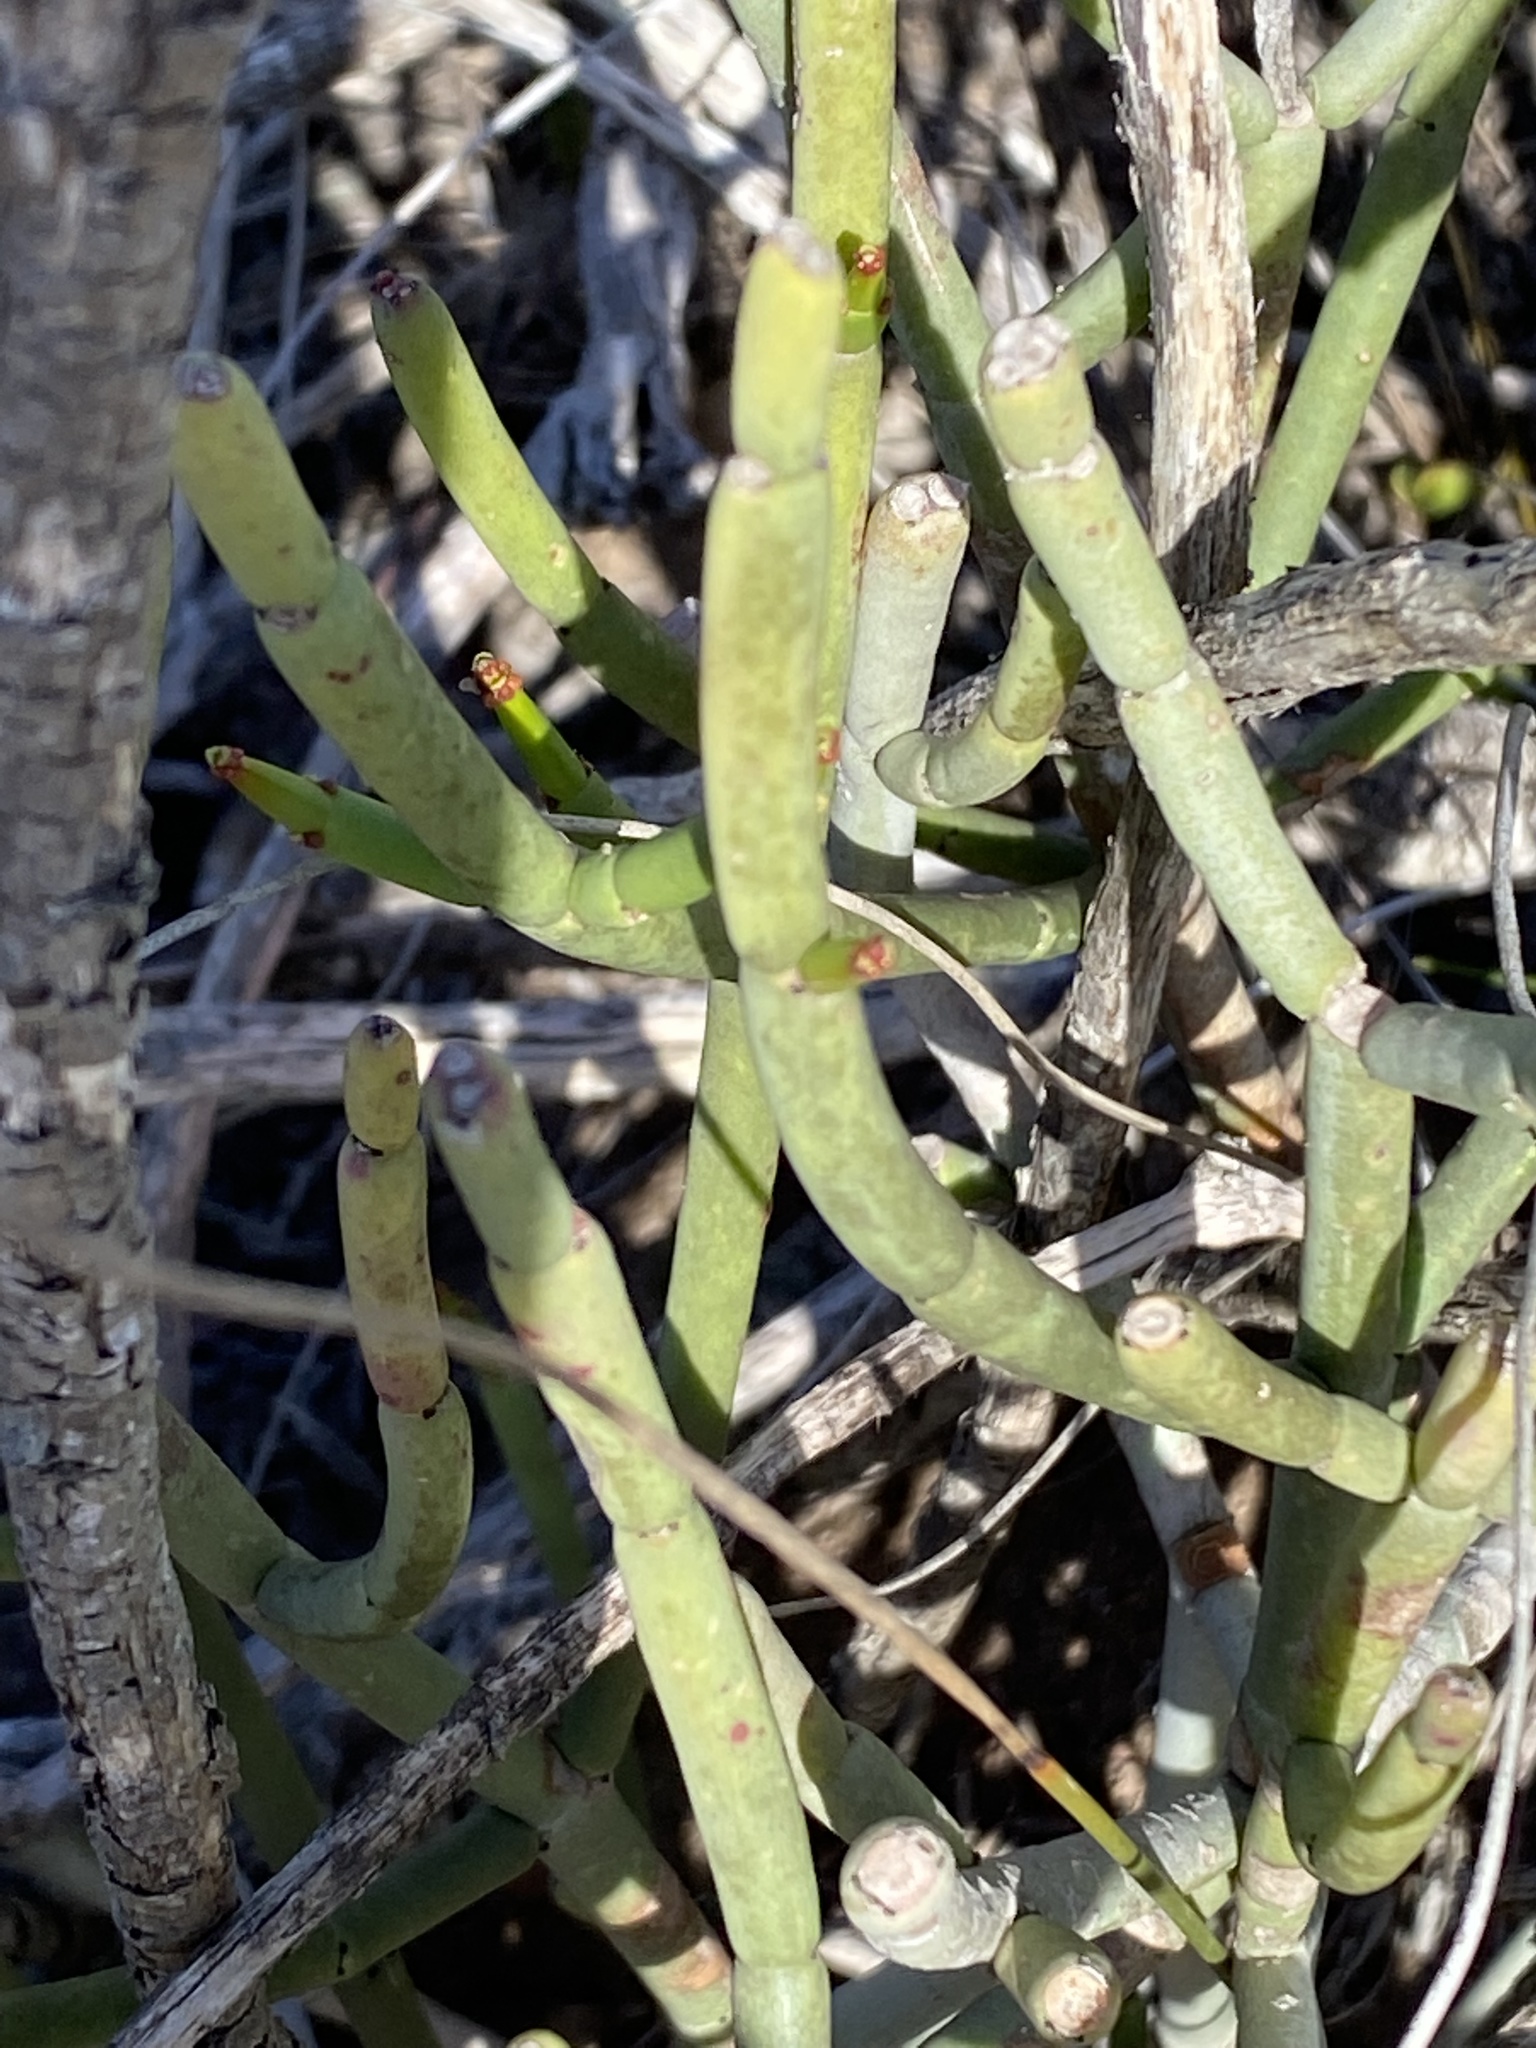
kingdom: Plantae
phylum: Tracheophyta
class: Magnoliopsida
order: Malpighiales
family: Euphorbiaceae
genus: Euphorbia
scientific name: Euphorbia burmanni
